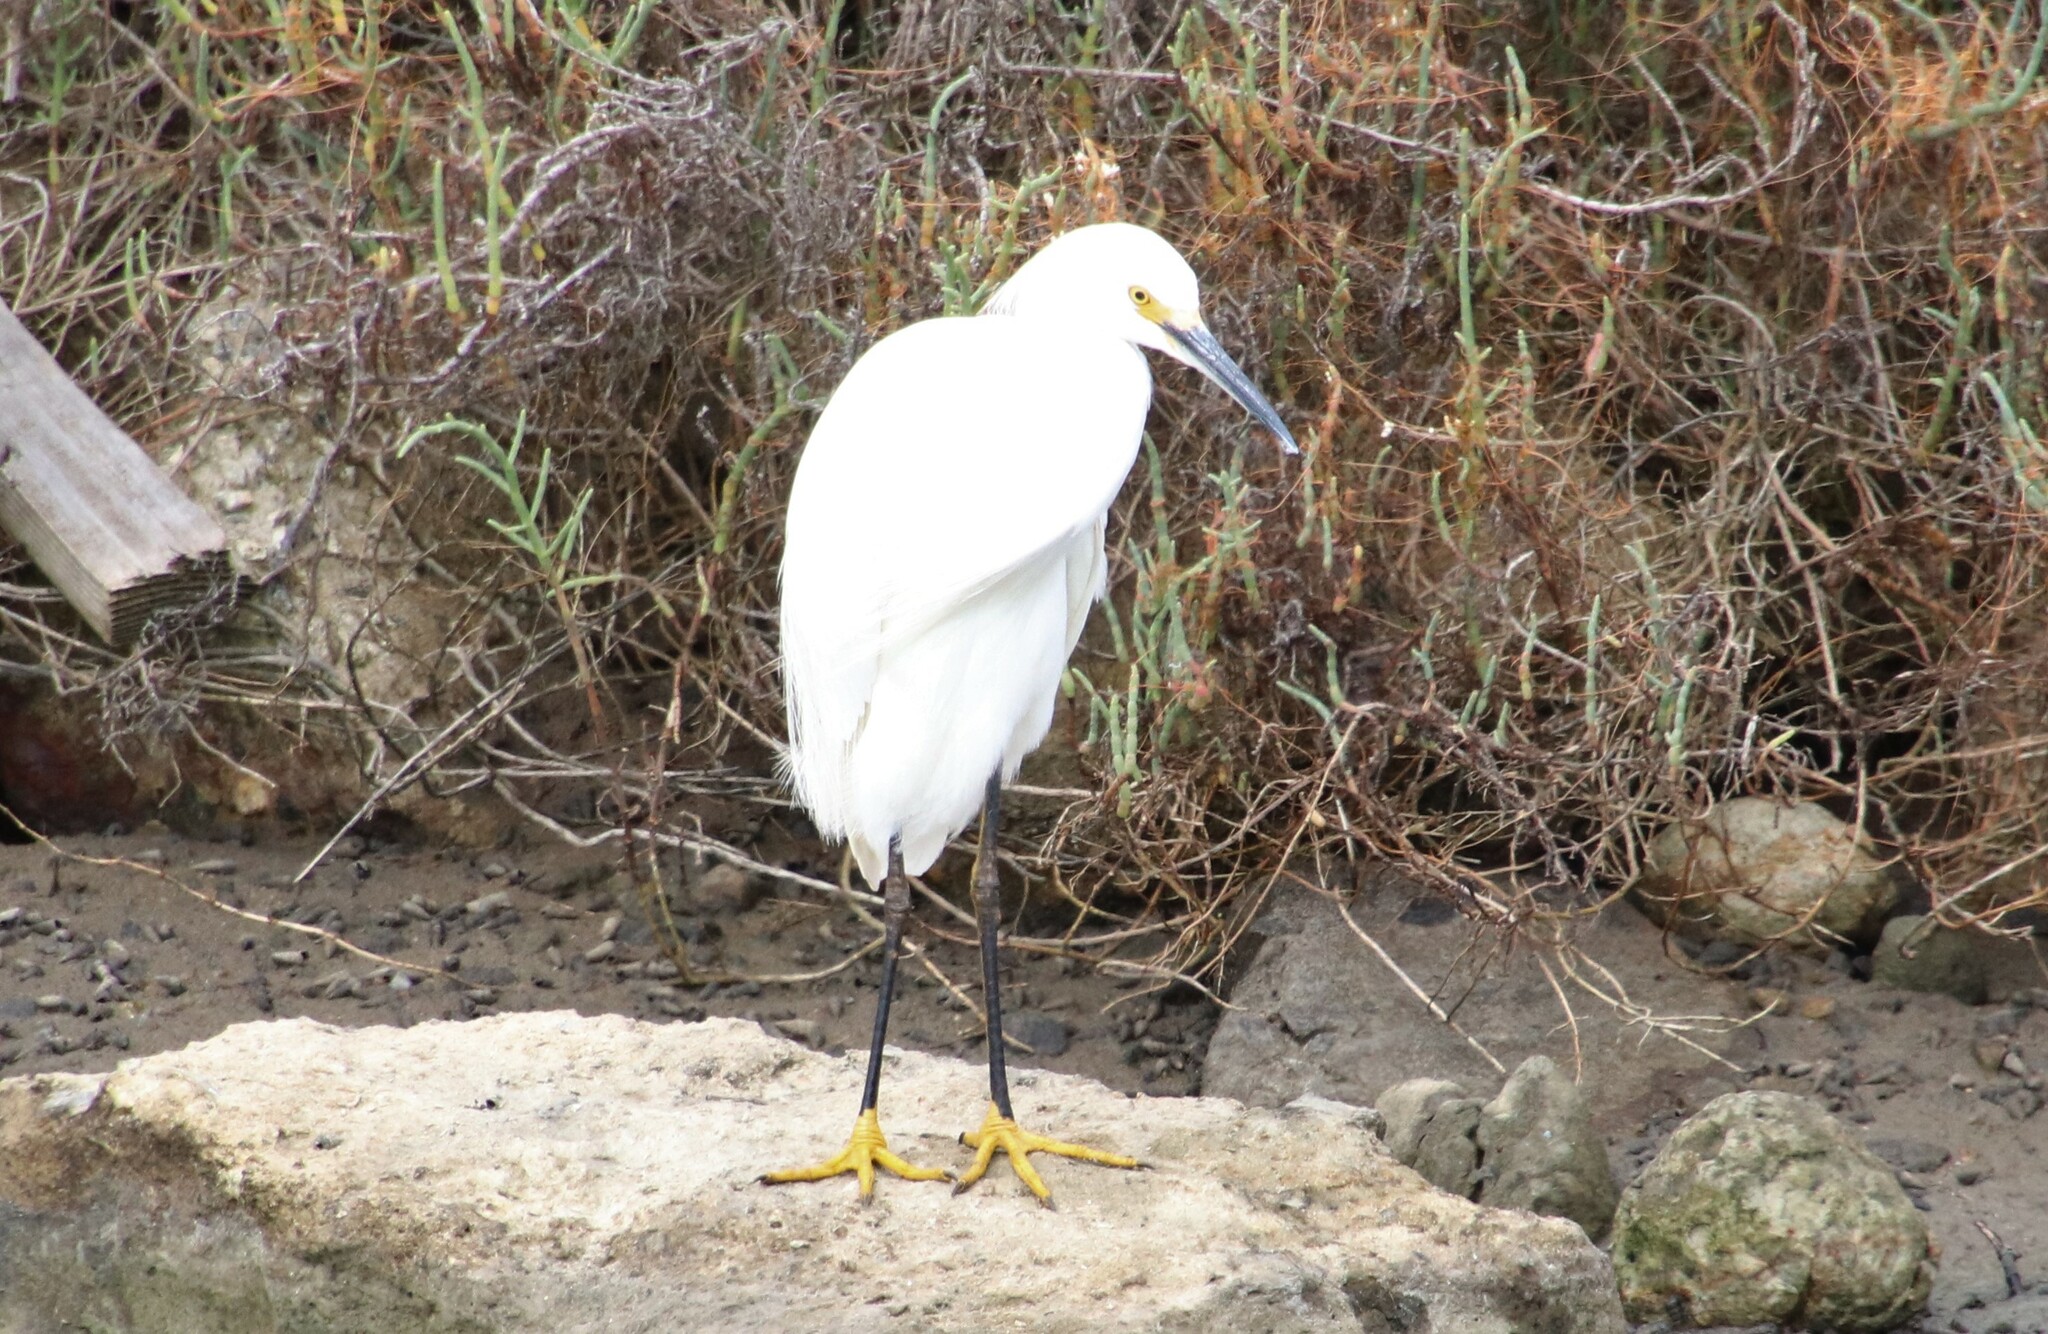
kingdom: Animalia
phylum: Chordata
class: Aves
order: Pelecaniformes
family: Ardeidae
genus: Egretta
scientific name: Egretta thula
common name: Snowy egret
